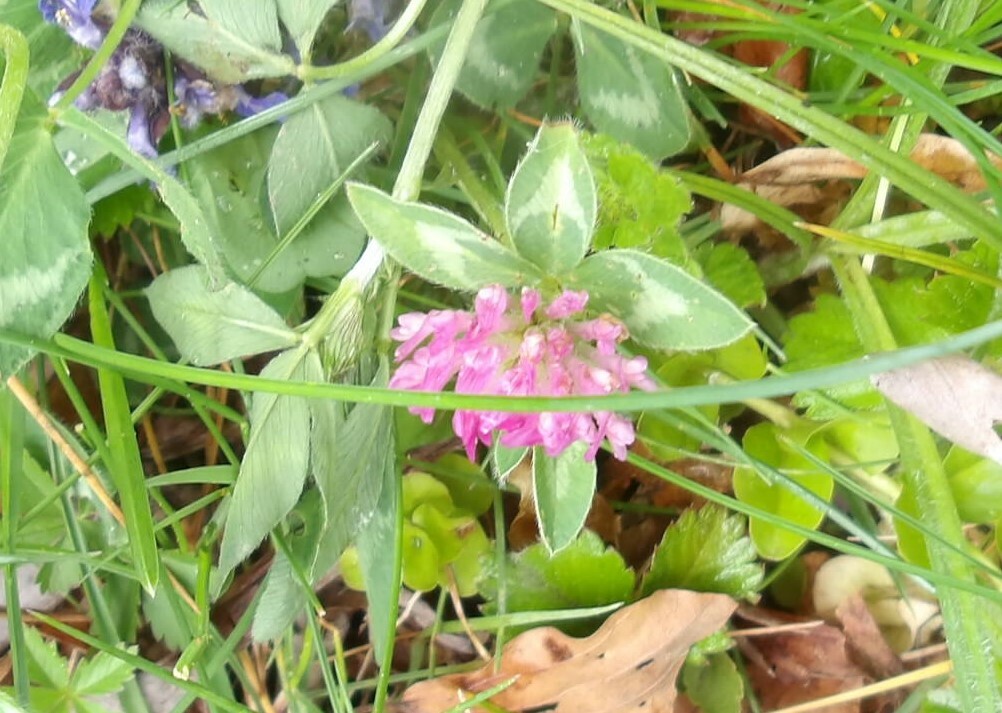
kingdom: Plantae
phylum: Tracheophyta
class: Magnoliopsida
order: Fabales
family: Fabaceae
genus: Trifolium
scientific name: Trifolium pratense
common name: Red clover
